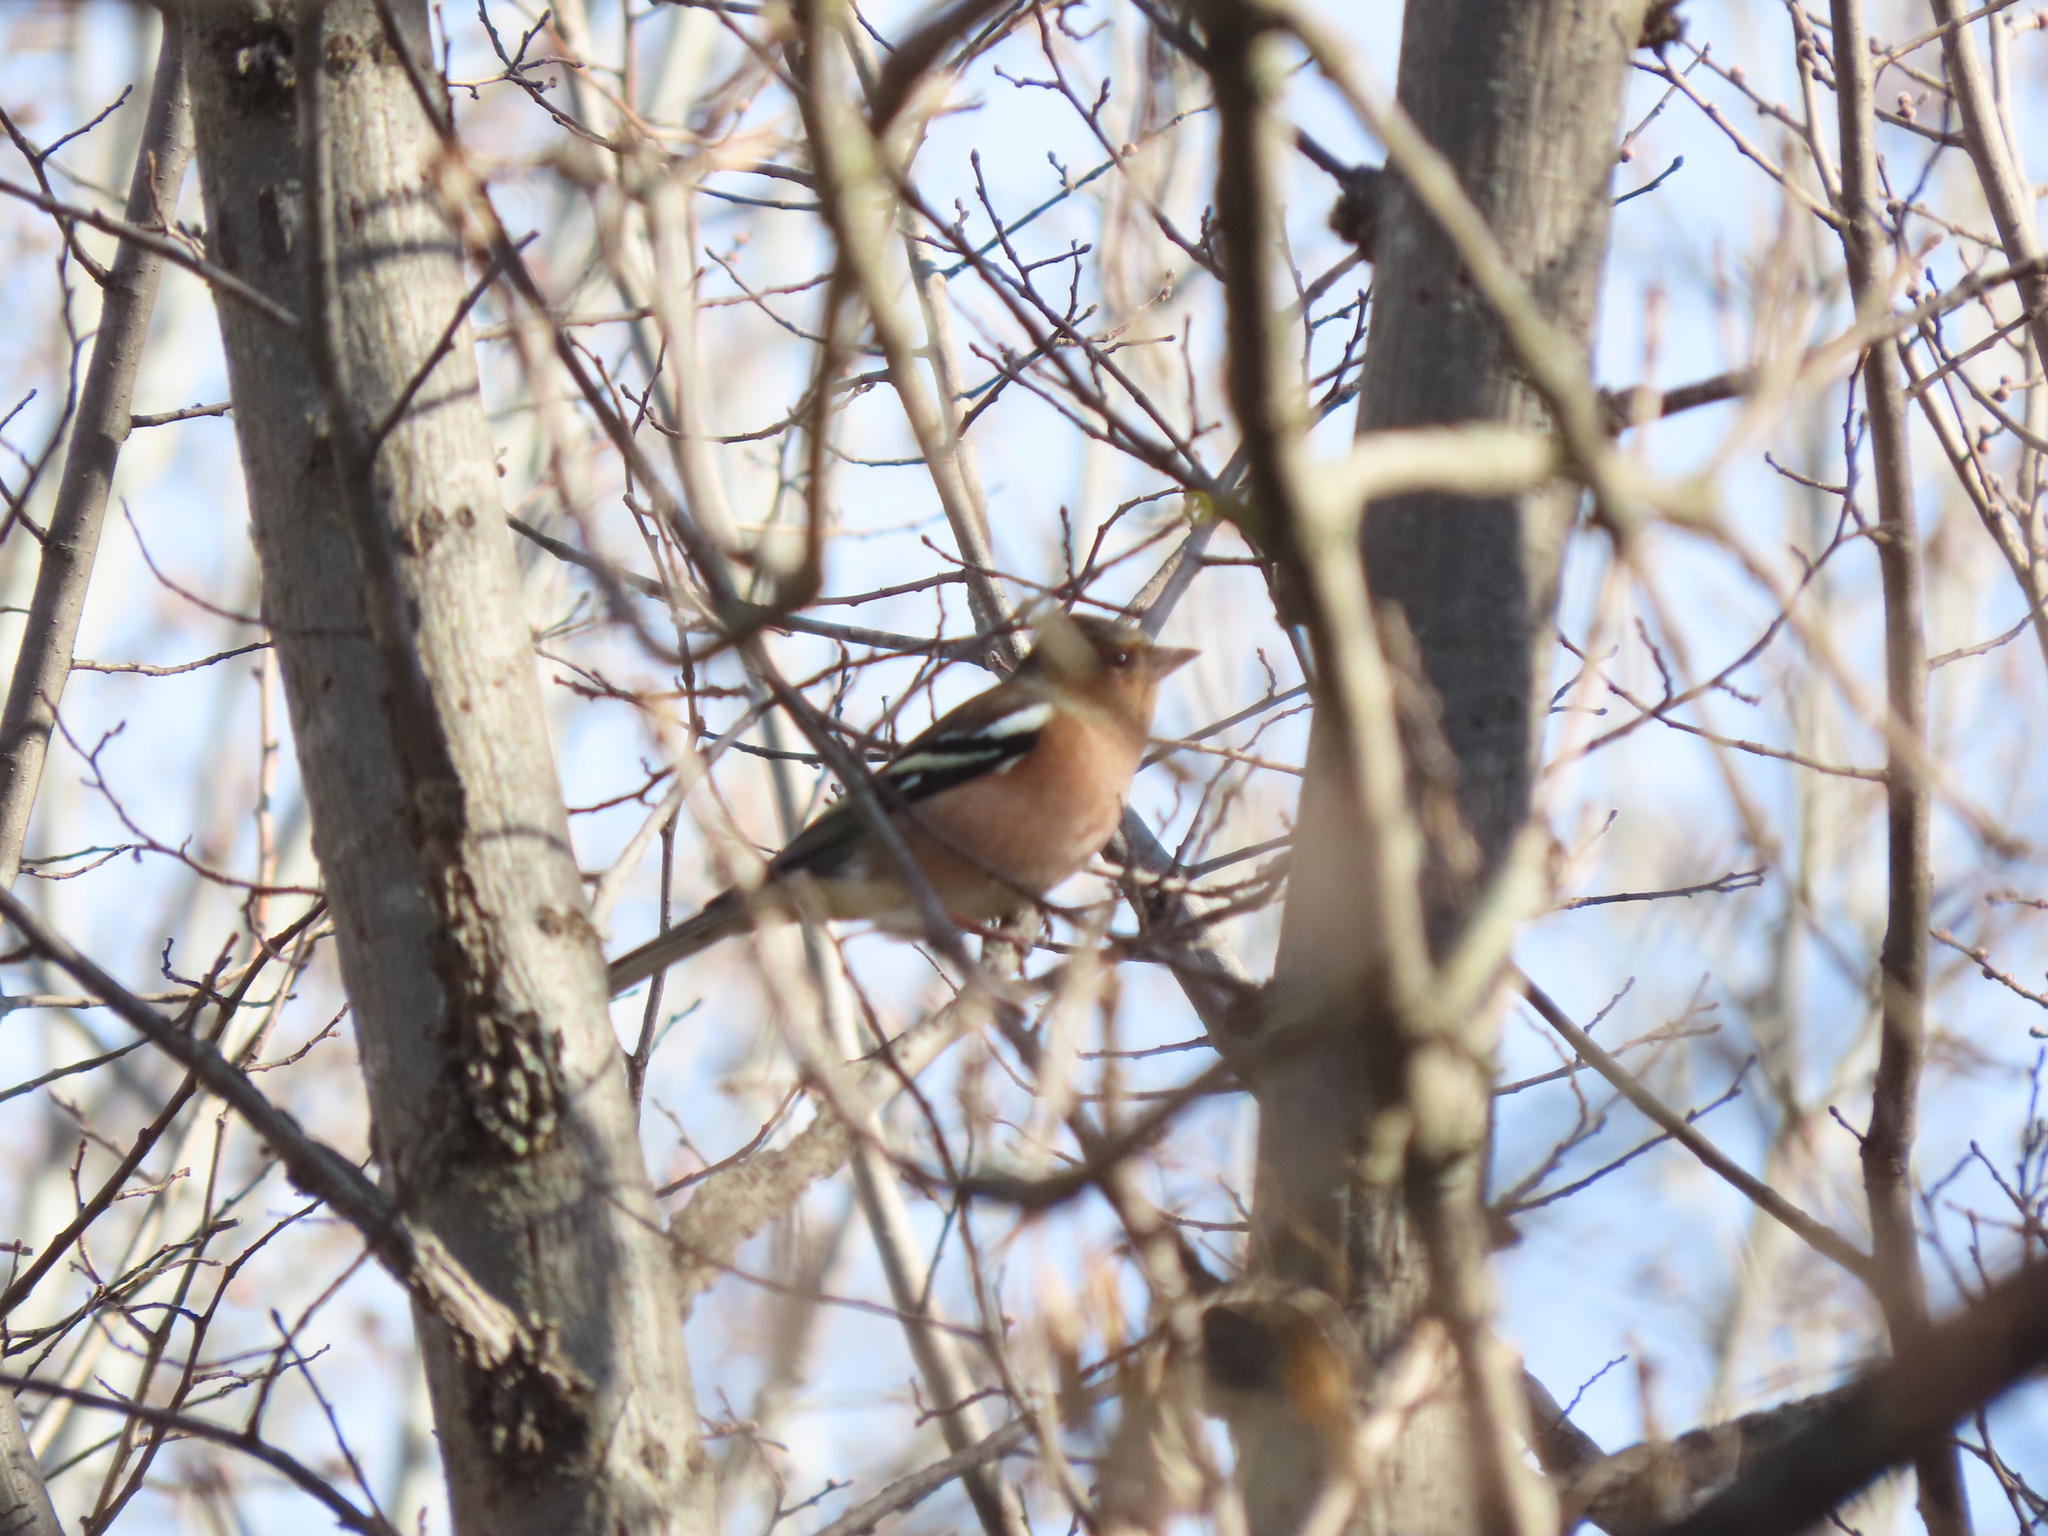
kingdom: Animalia
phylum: Chordata
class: Aves
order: Passeriformes
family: Fringillidae
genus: Fringilla
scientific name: Fringilla coelebs
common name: Common chaffinch
